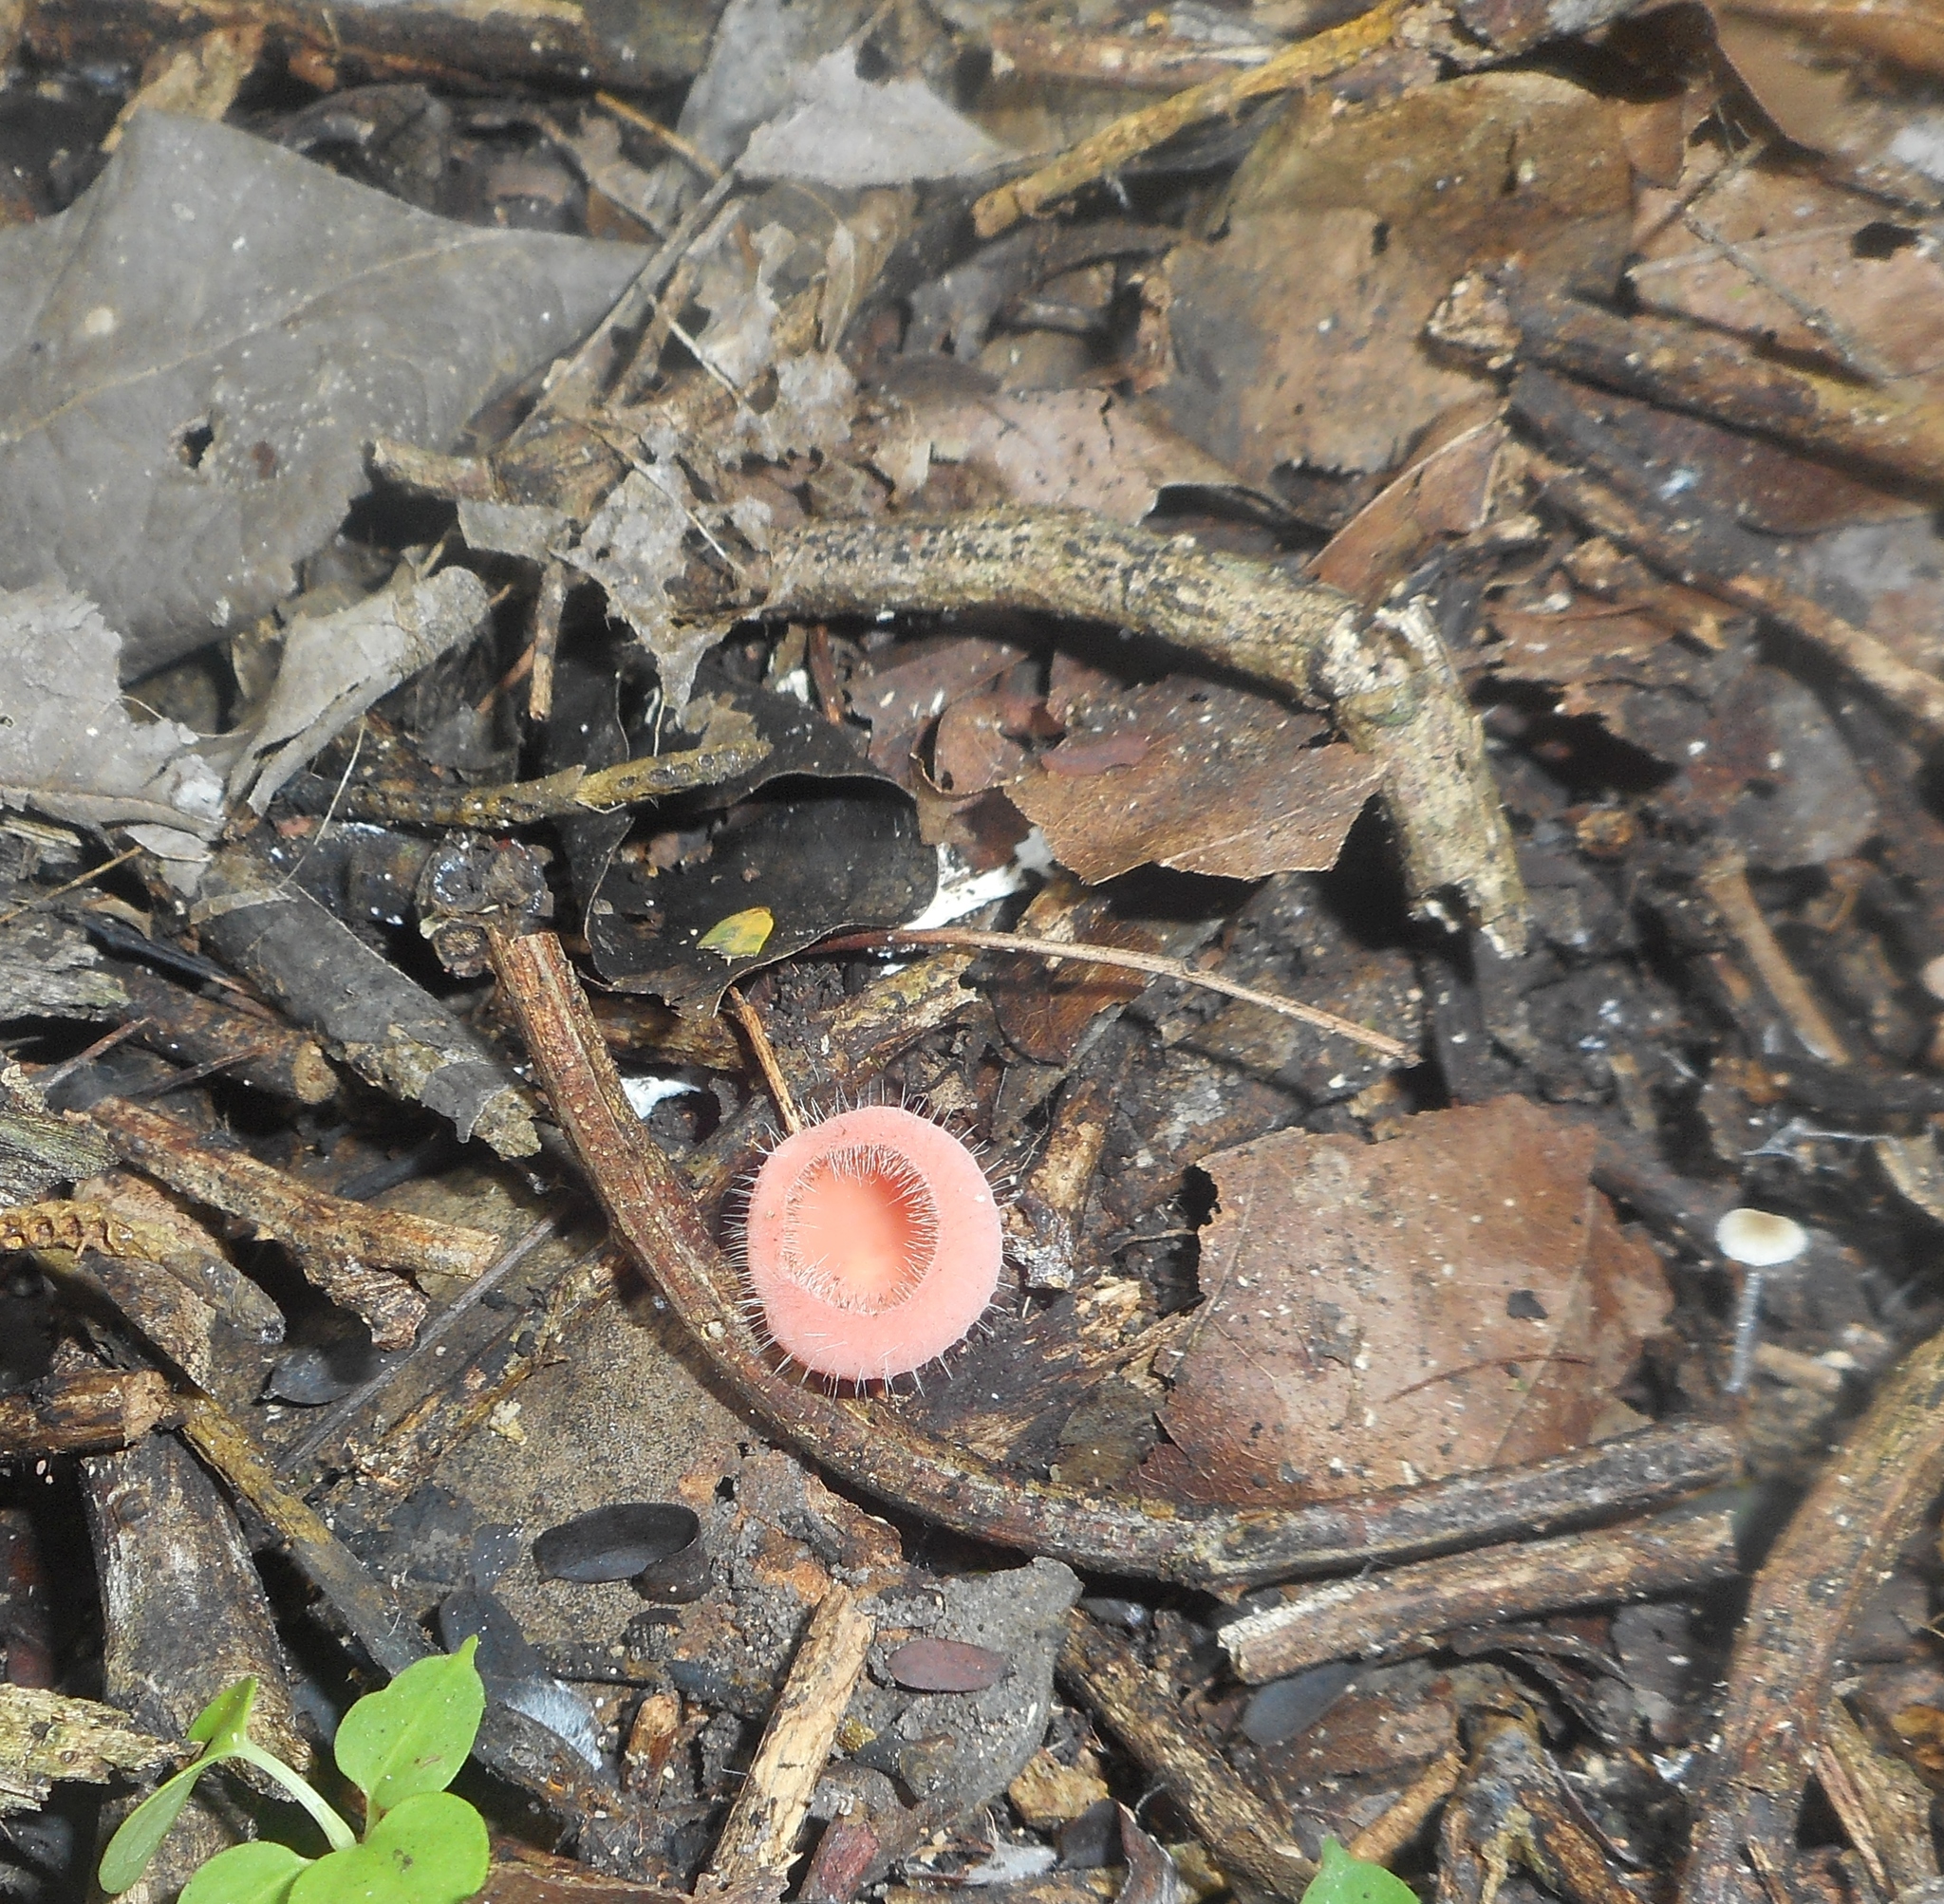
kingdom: Fungi
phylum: Ascomycota
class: Pezizomycetes
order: Pezizales
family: Sarcoscyphaceae
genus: Cookeina
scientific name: Cookeina tricholoma
